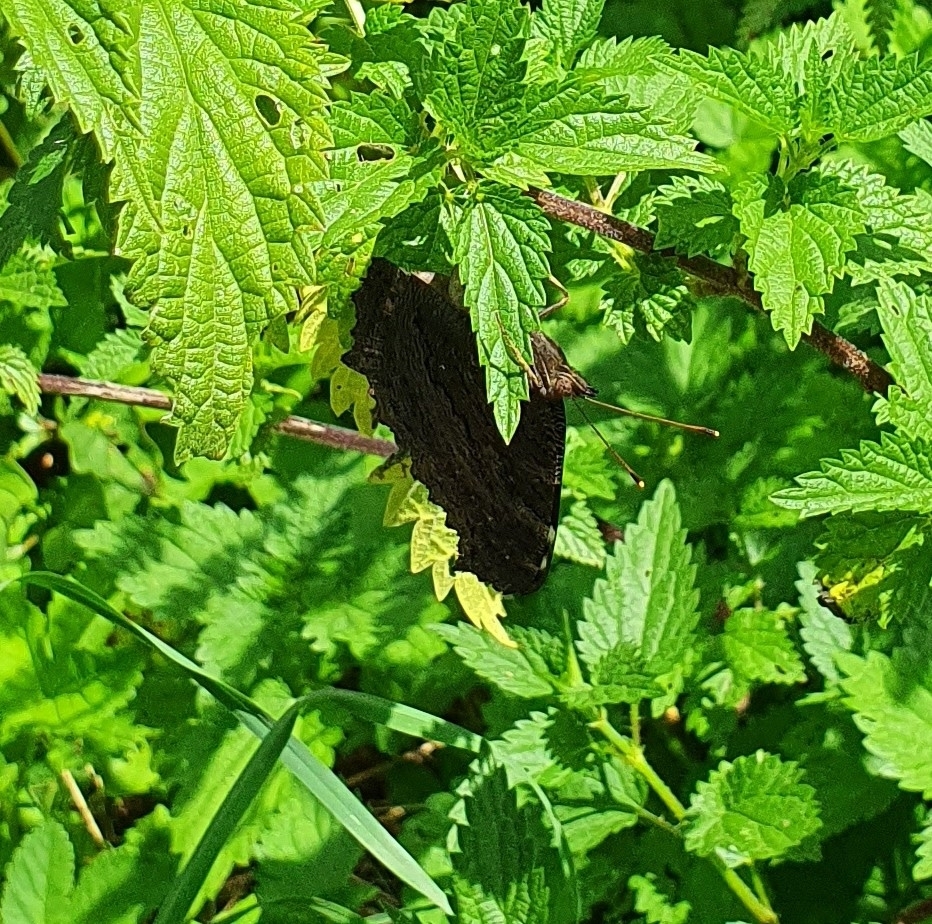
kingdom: Animalia
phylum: Arthropoda
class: Insecta
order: Lepidoptera
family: Nymphalidae
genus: Aglais
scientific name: Aglais io
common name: Peacock
